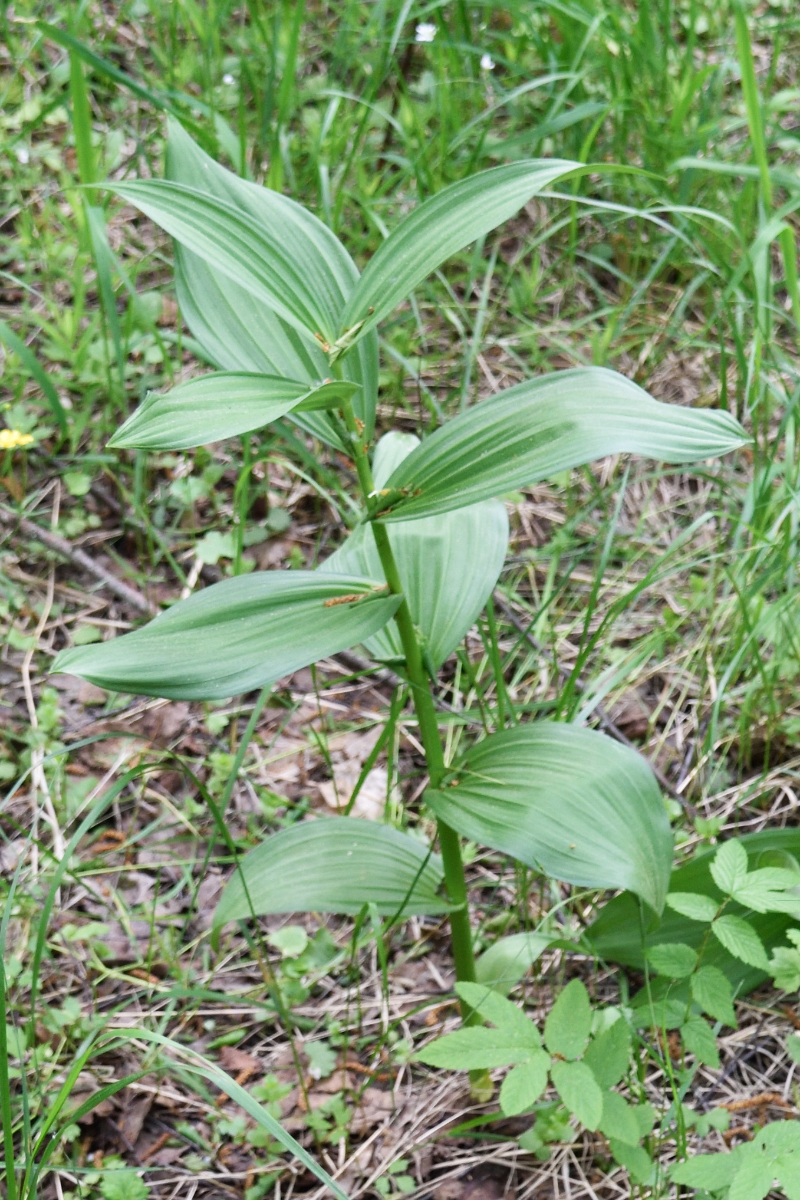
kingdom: Plantae
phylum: Tracheophyta
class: Liliopsida
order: Liliales
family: Melanthiaceae
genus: Veratrum
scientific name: Veratrum lobelianum
